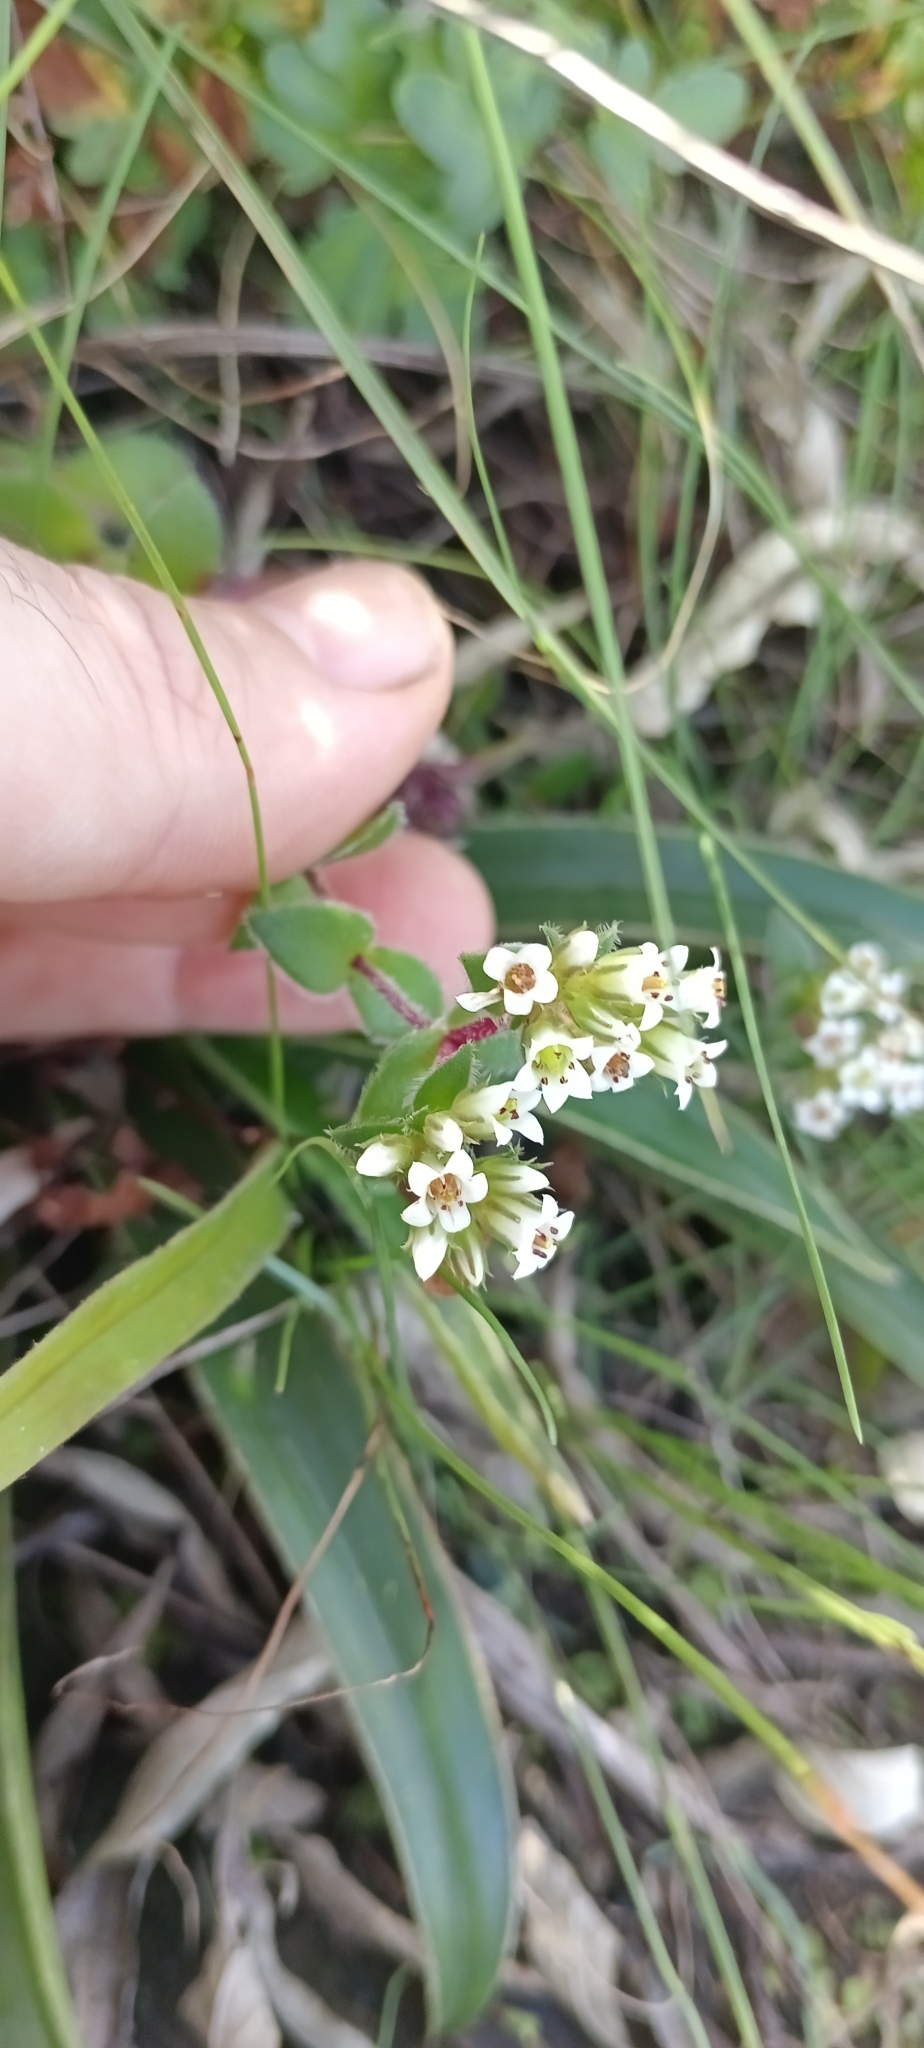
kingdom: Plantae
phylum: Tracheophyta
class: Magnoliopsida
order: Saxifragales
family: Crassulaceae
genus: Crassula
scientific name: Crassula obovata
